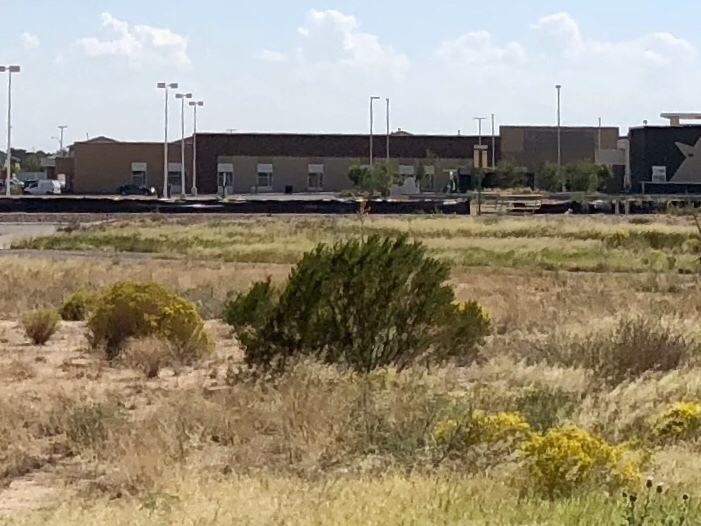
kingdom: Plantae
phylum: Tracheophyta
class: Magnoliopsida
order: Zygophyllales
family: Zygophyllaceae
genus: Larrea
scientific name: Larrea tridentata
